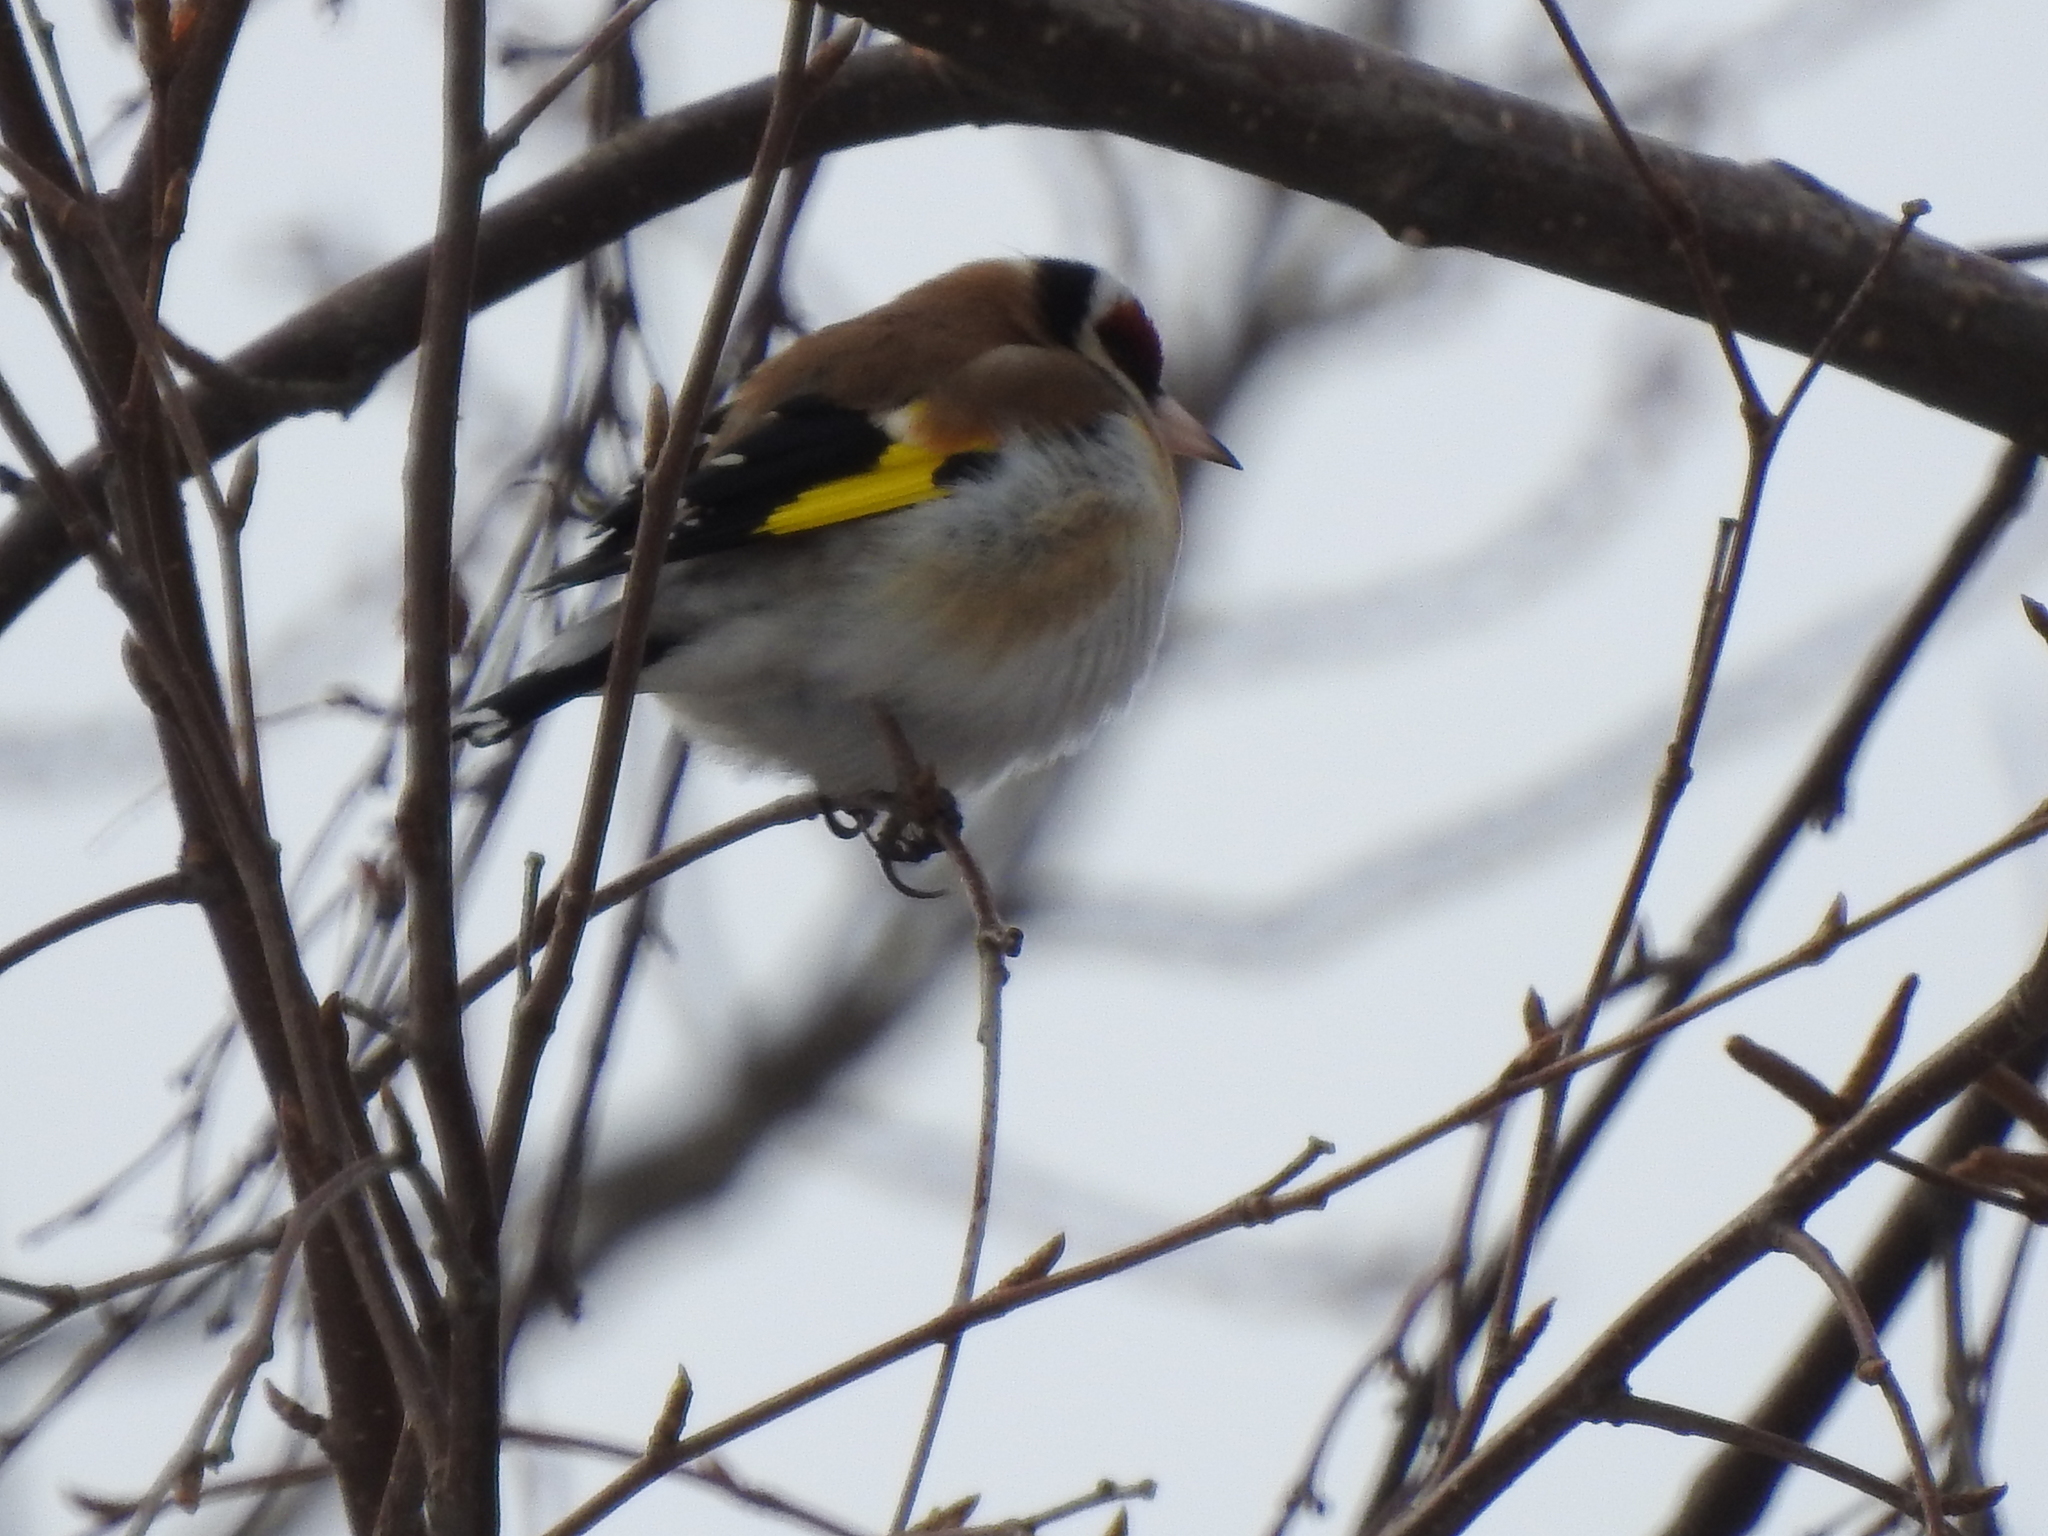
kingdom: Animalia
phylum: Chordata
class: Aves
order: Passeriformes
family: Fringillidae
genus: Carduelis
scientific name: Carduelis carduelis
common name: European goldfinch
